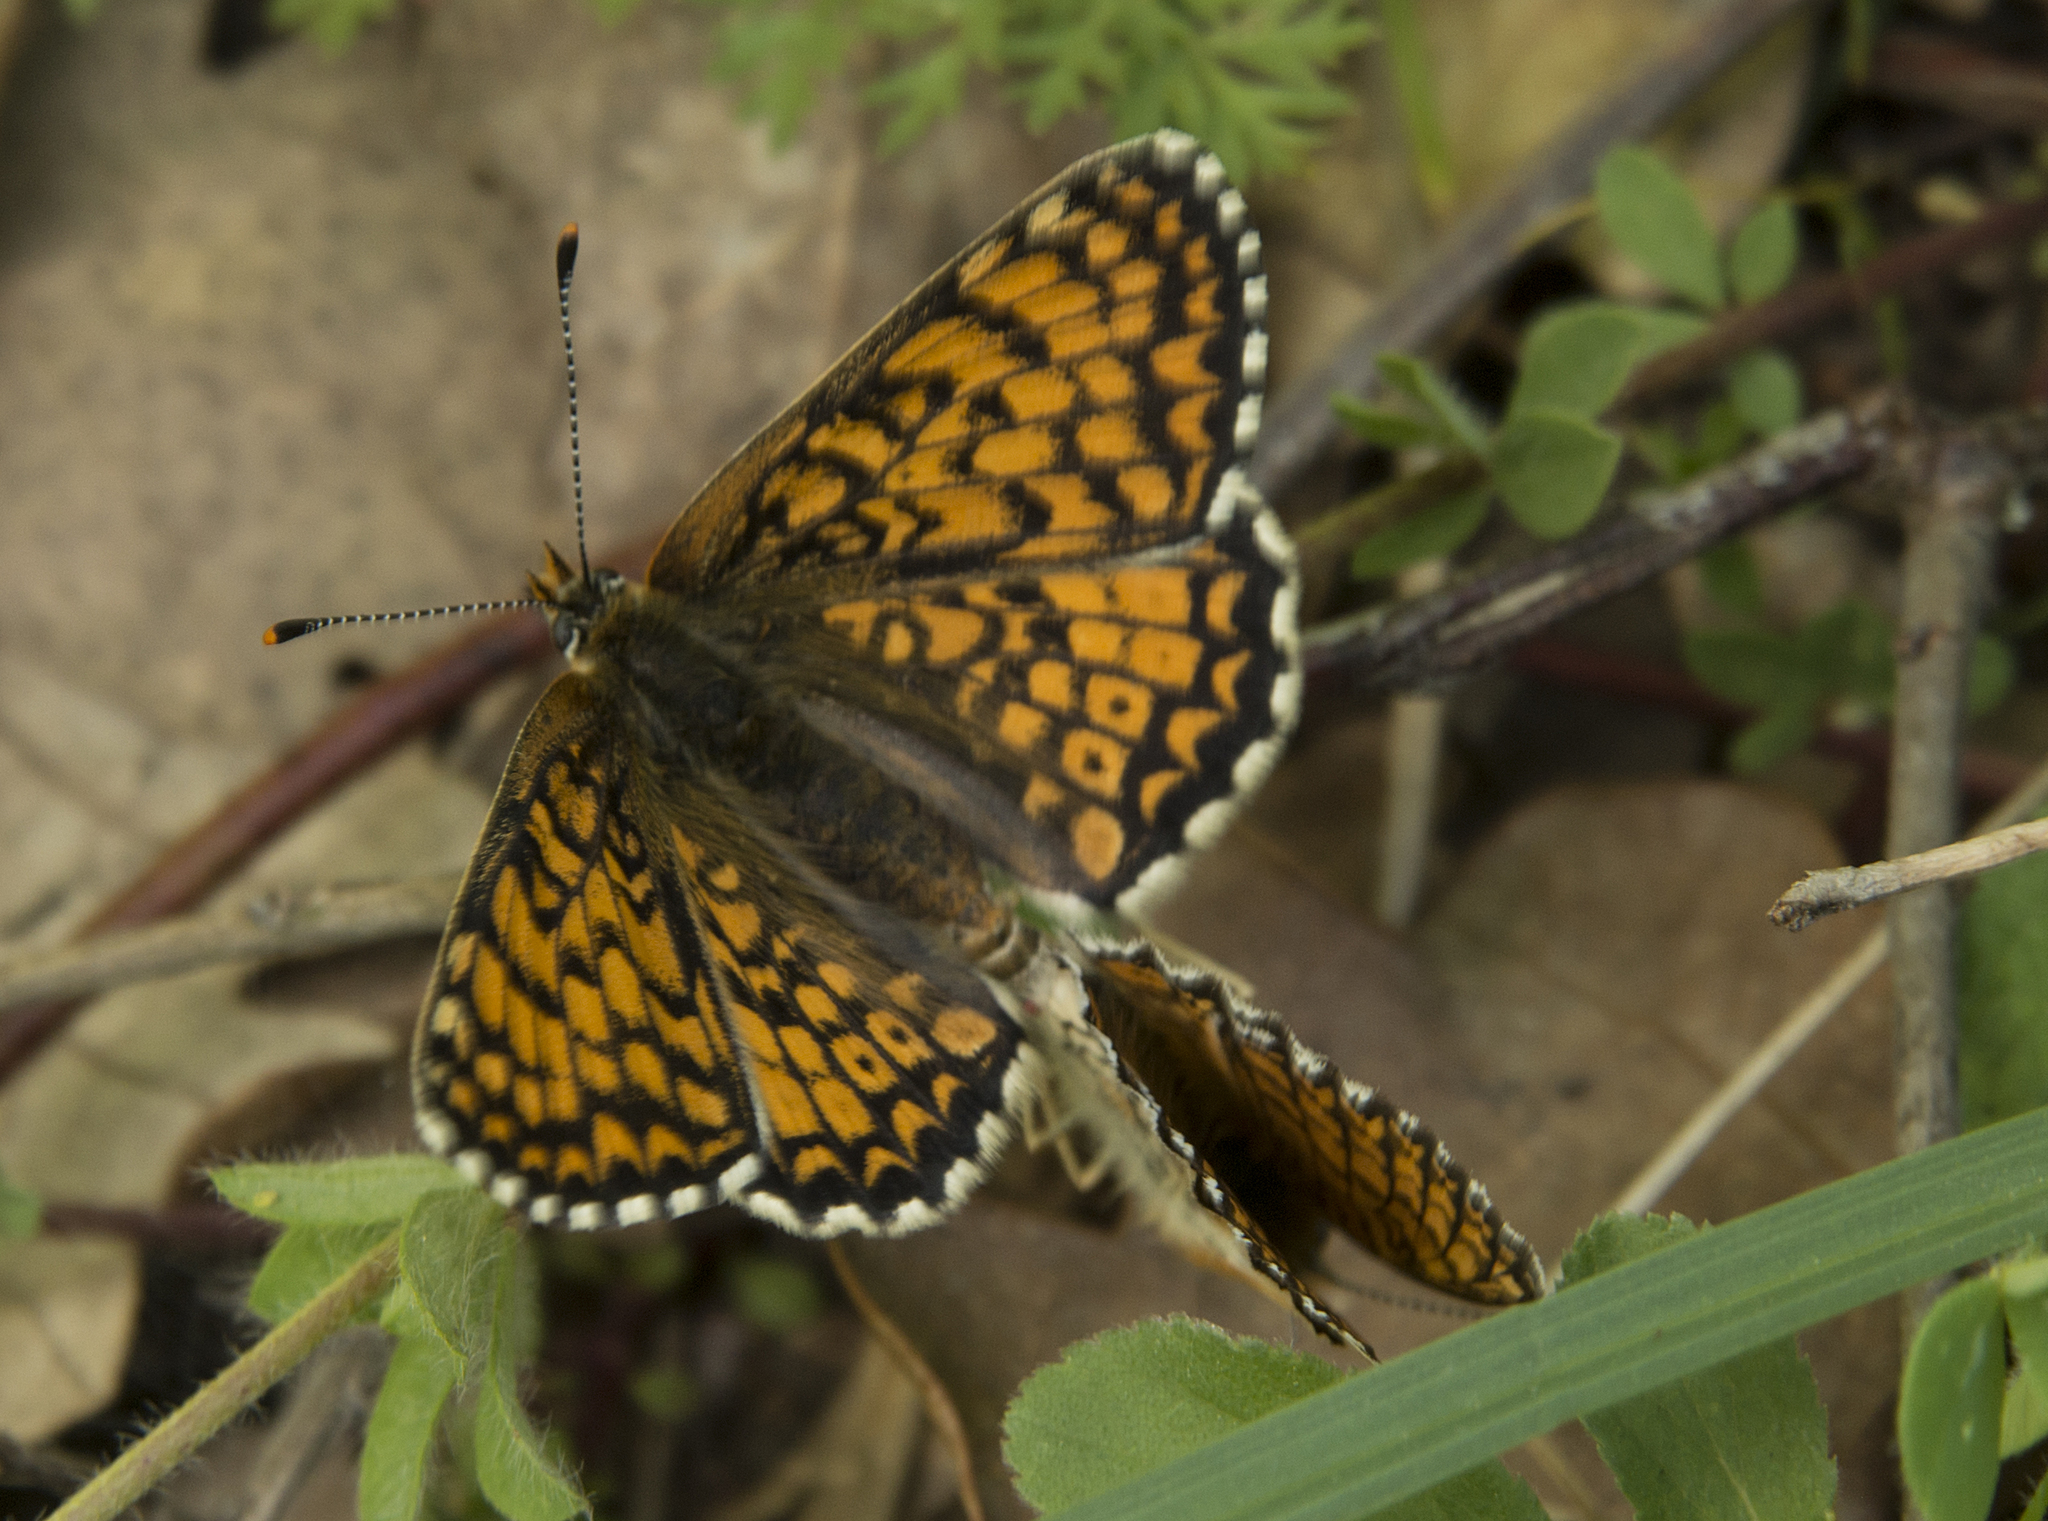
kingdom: Animalia
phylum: Arthropoda
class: Insecta
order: Lepidoptera
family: Nymphalidae
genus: Melitaea
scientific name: Melitaea cinxia
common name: Glanville fritillary
